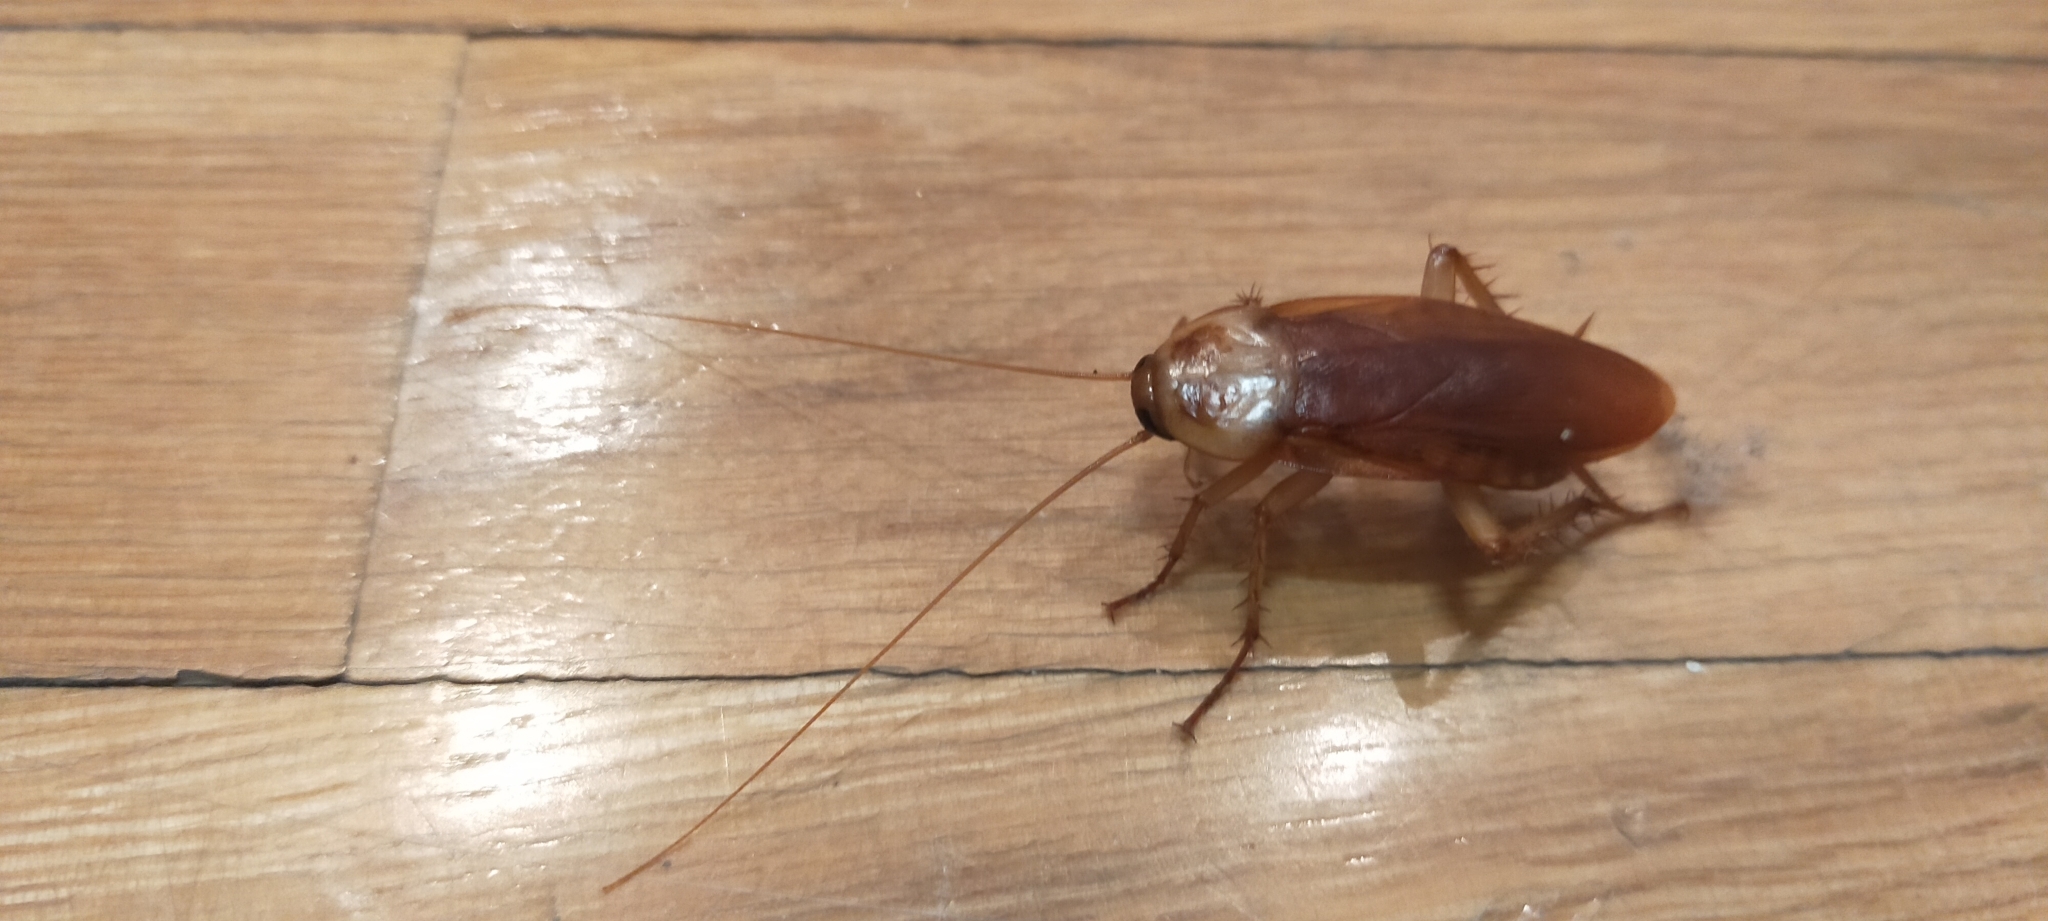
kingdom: Animalia
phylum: Arthropoda
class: Insecta
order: Blattodea
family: Blattidae
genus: Periplaneta
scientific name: Periplaneta americana
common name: American cockroach
